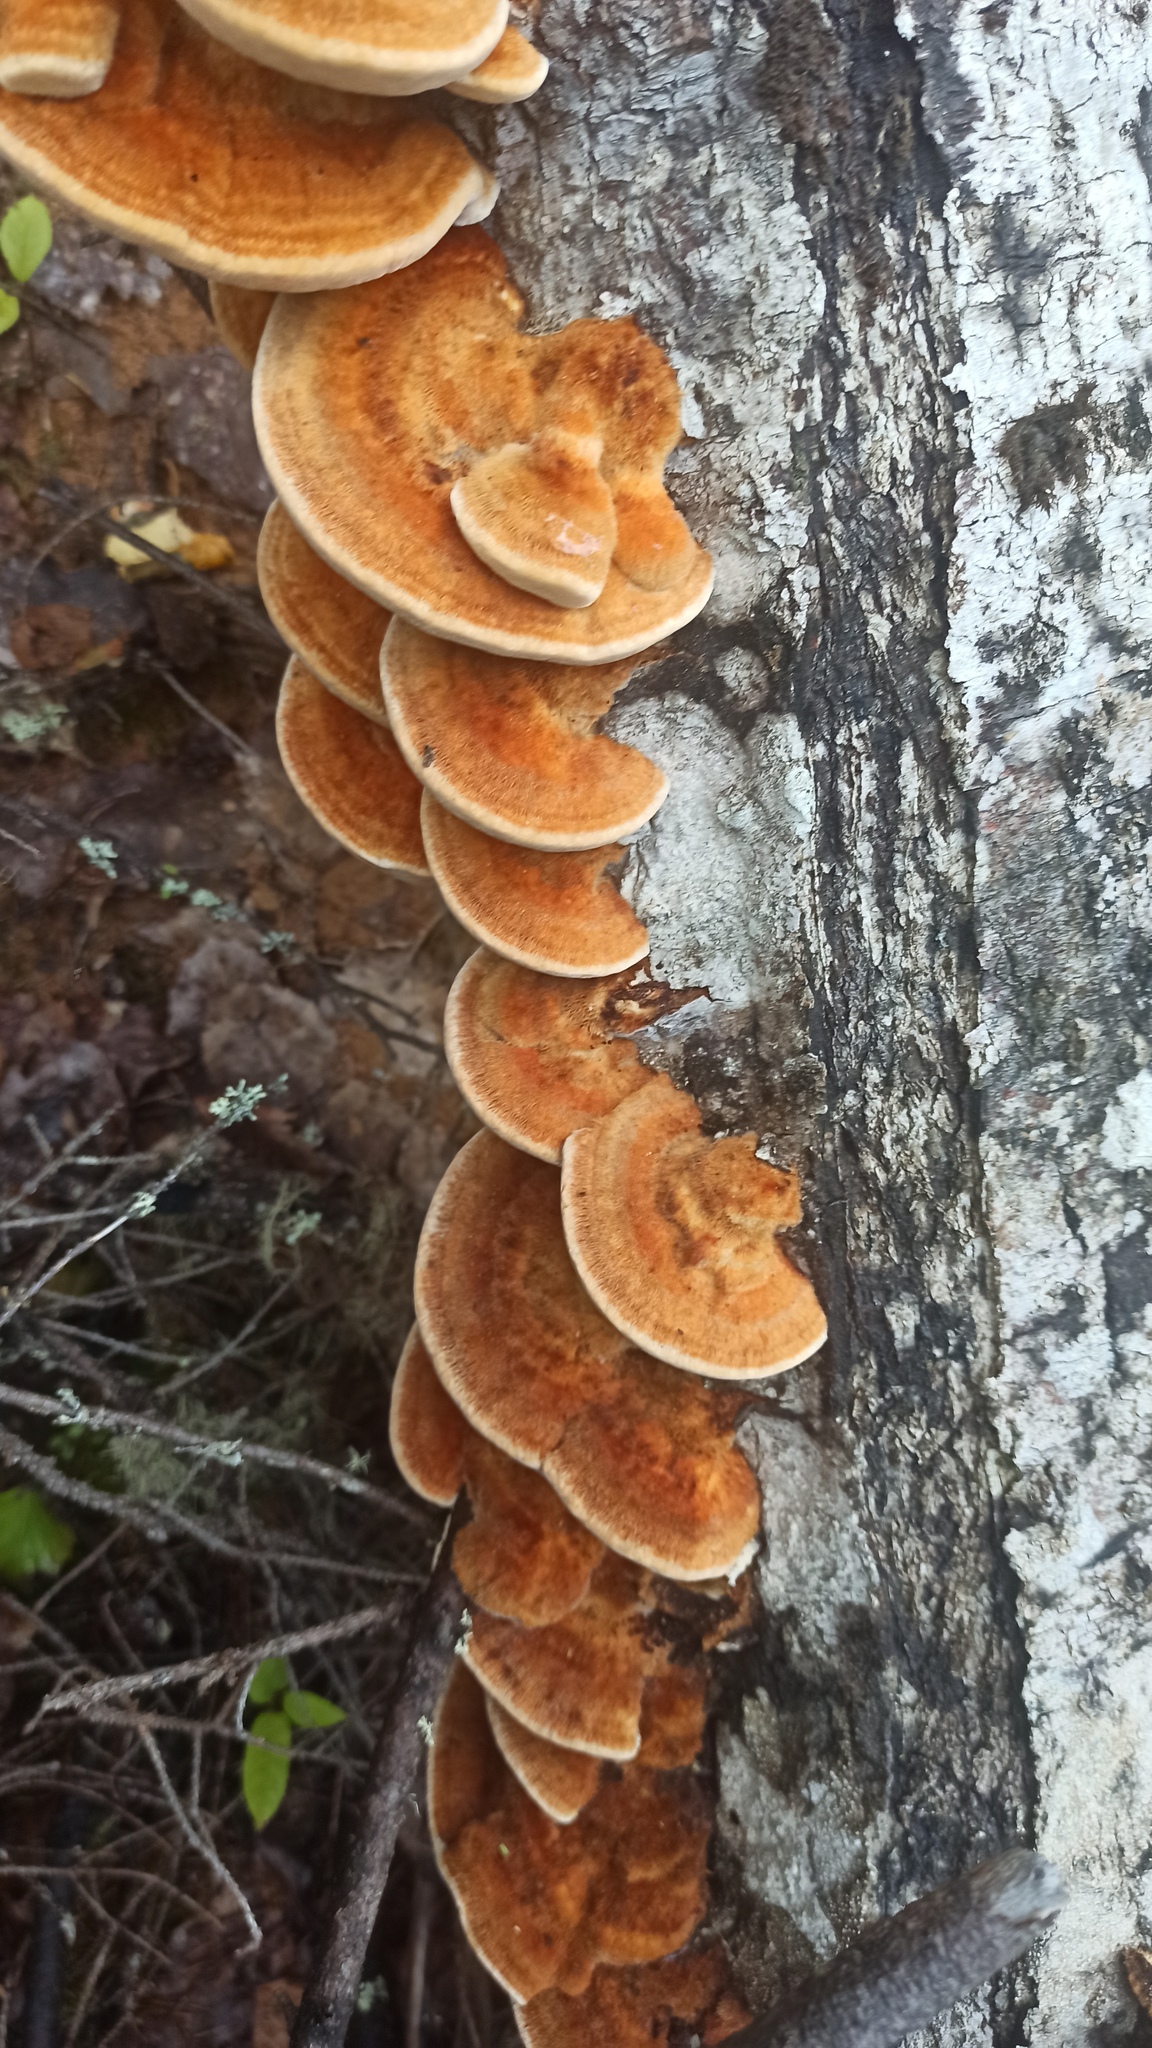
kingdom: Fungi
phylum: Basidiomycota
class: Agaricomycetes
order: Hymenochaetales
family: Hymenochaetaceae
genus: Inocutis
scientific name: Inocutis rheades
